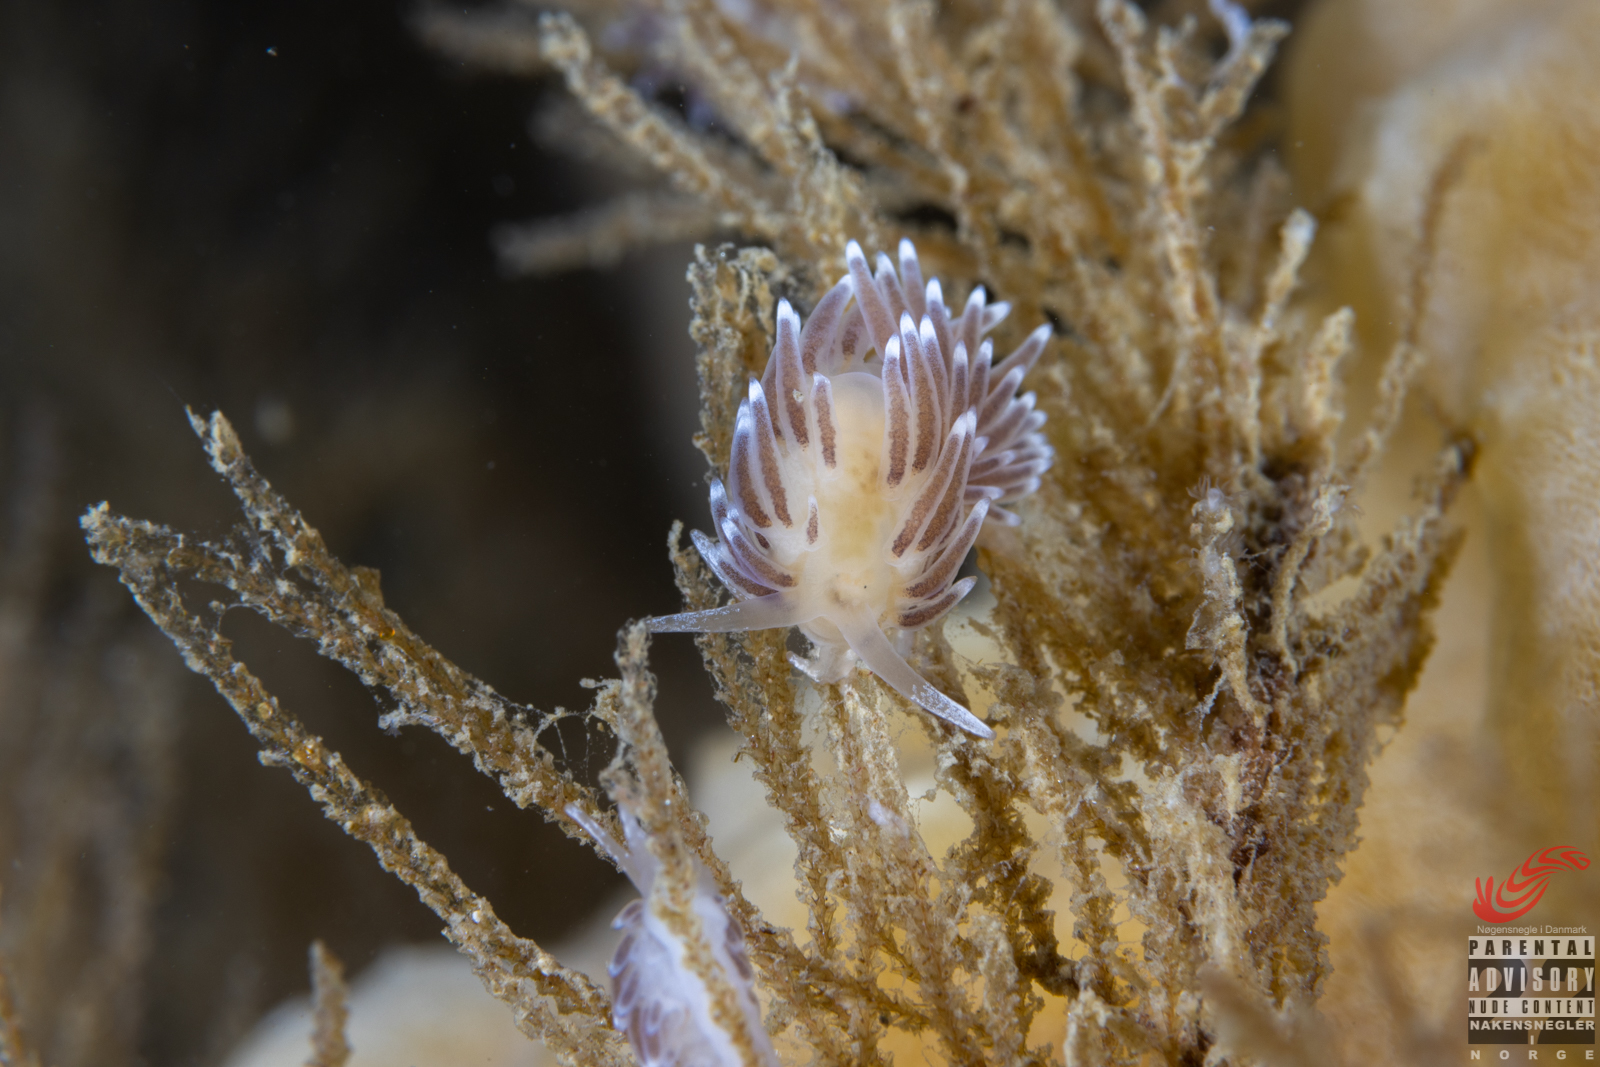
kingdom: Animalia
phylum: Mollusca
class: Gastropoda
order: Nudibranchia
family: Cuthonellidae
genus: Cuthonella
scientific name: Cuthonella concinna
